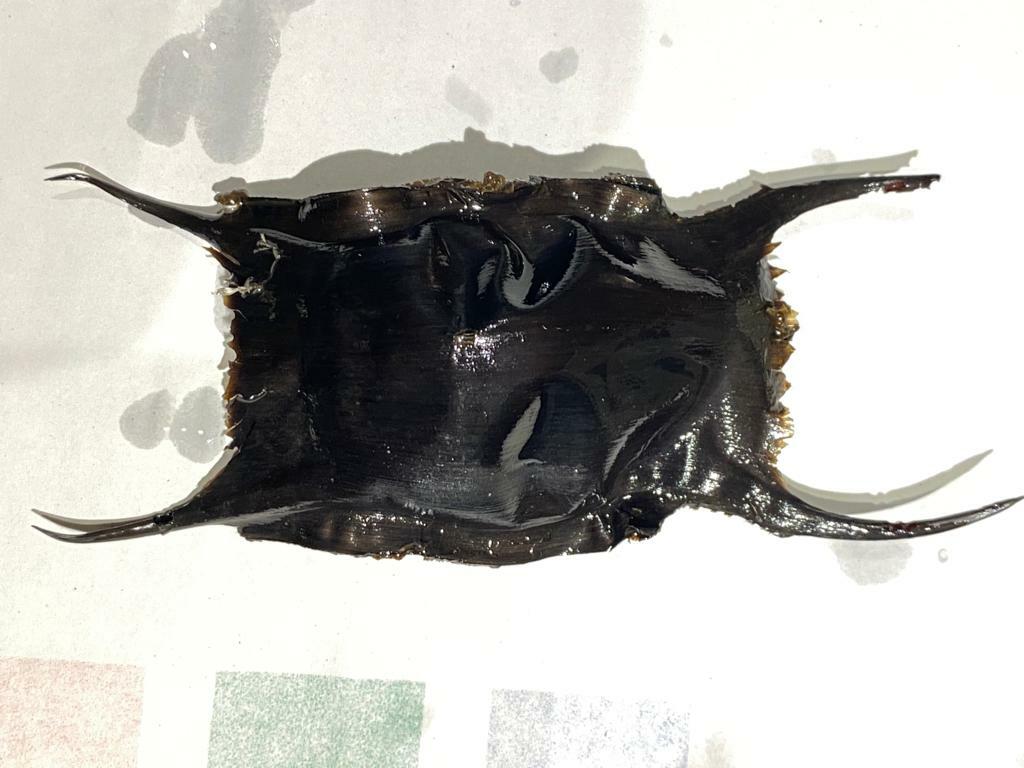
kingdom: Animalia
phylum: Chordata
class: Elasmobranchii
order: Rajiformes
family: Rajidae
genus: Raja
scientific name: Raja clavata
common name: Thornback ray
